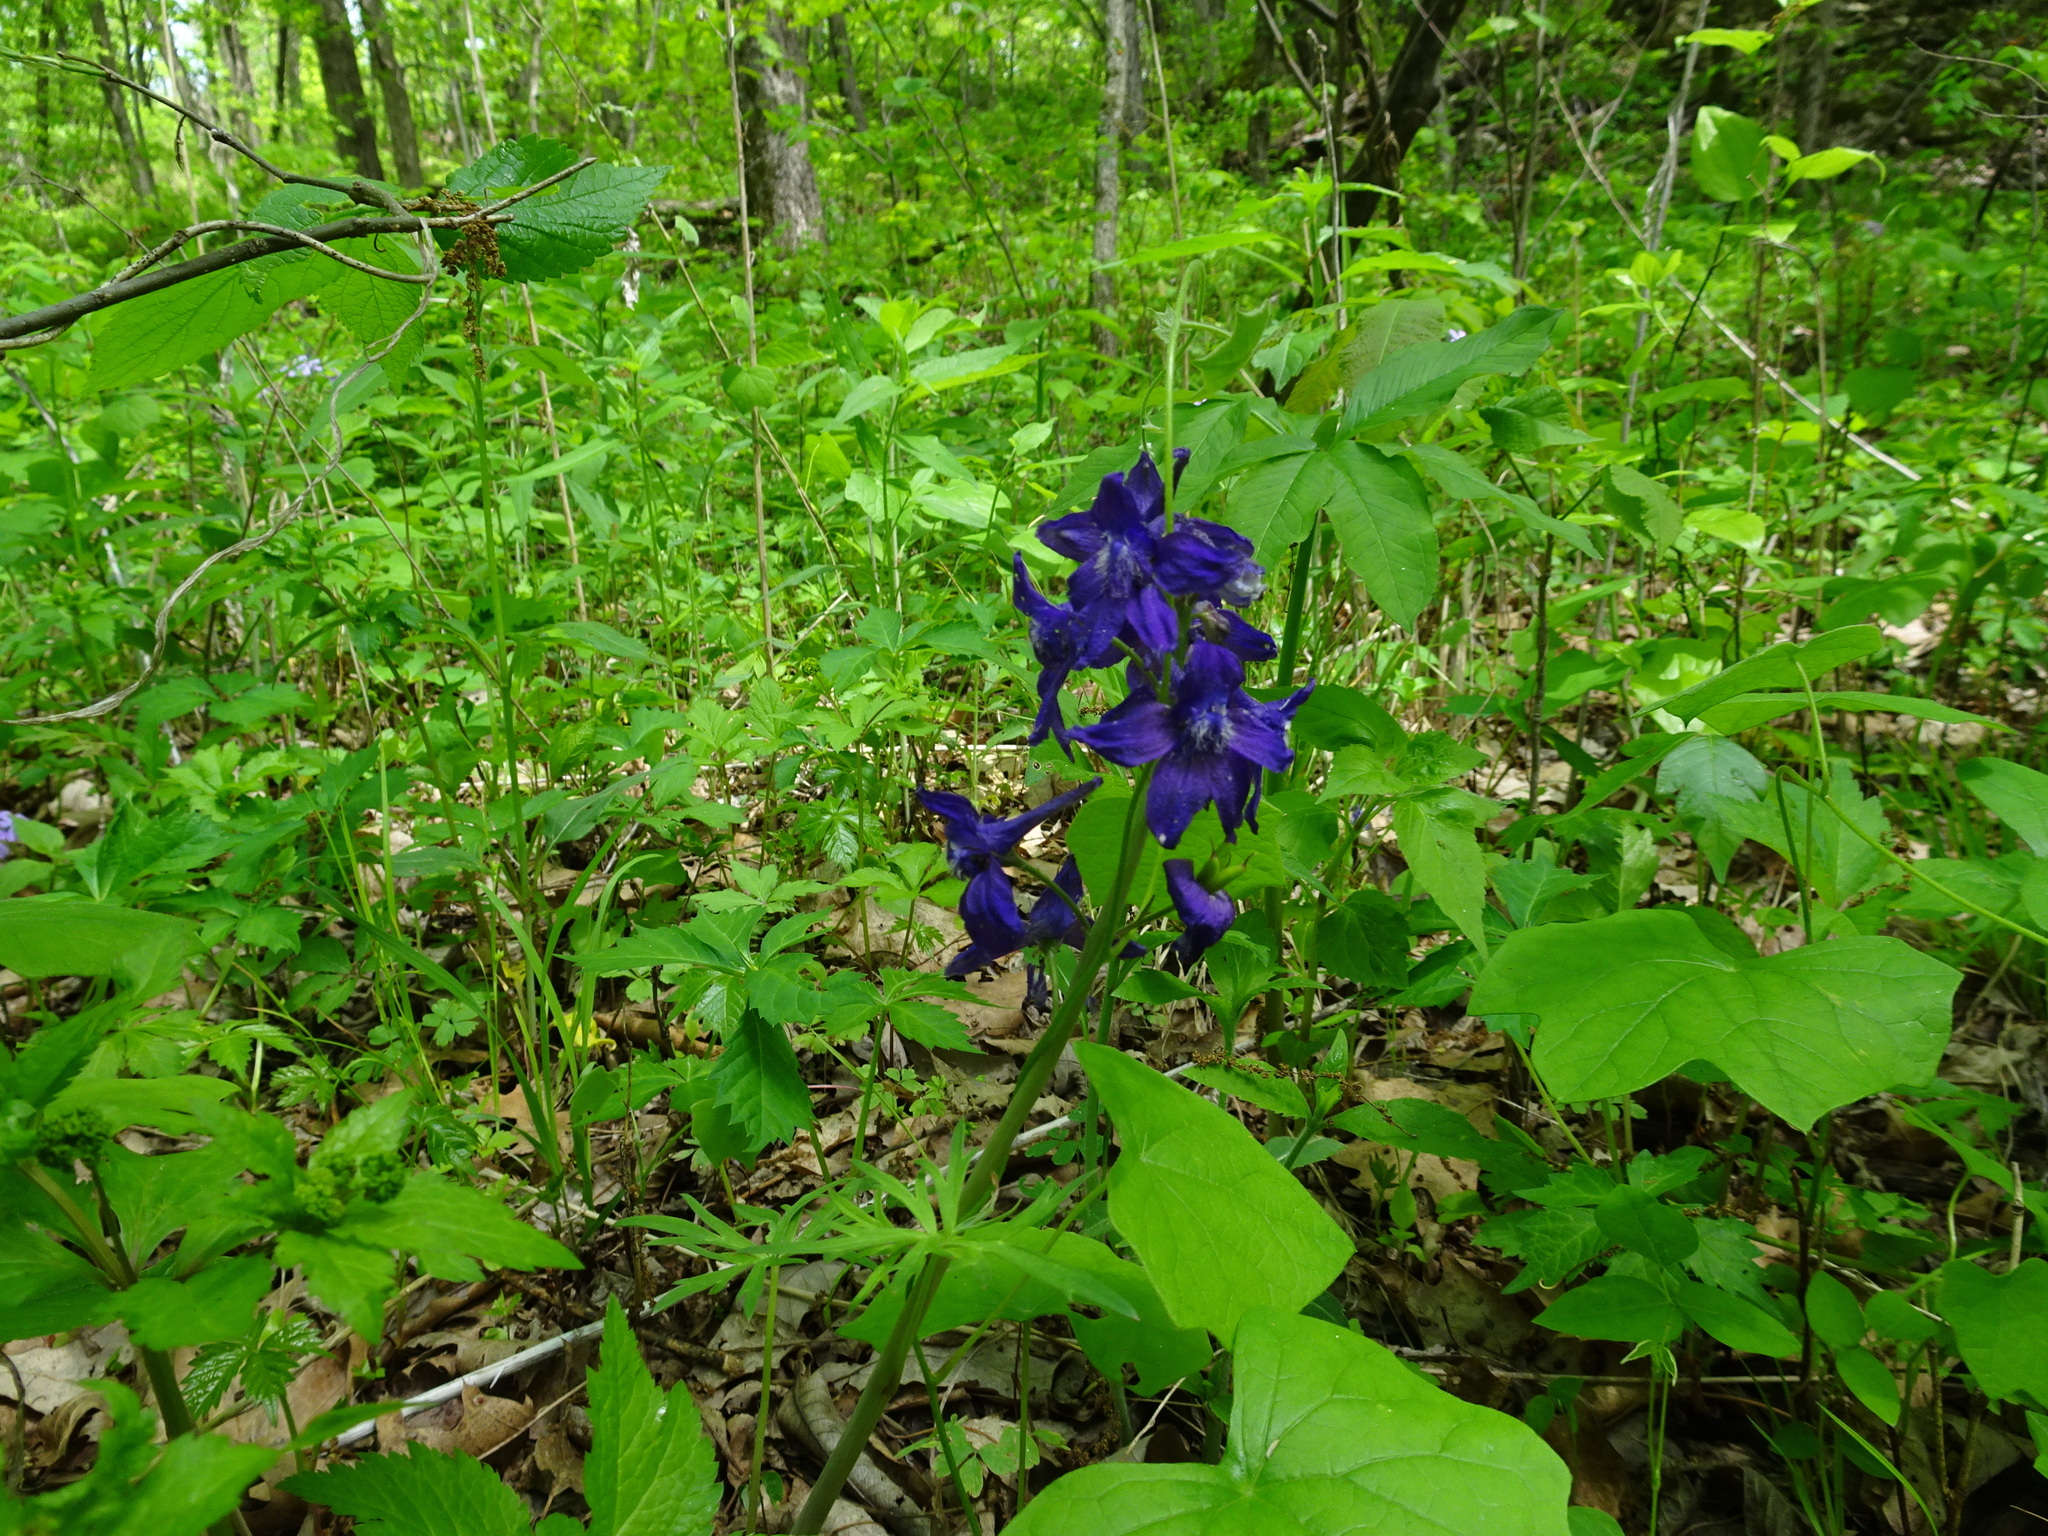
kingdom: Plantae
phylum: Tracheophyta
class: Magnoliopsida
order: Ranunculales
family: Ranunculaceae
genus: Delphinium
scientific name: Delphinium tricorne
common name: Dwarf larkspur
